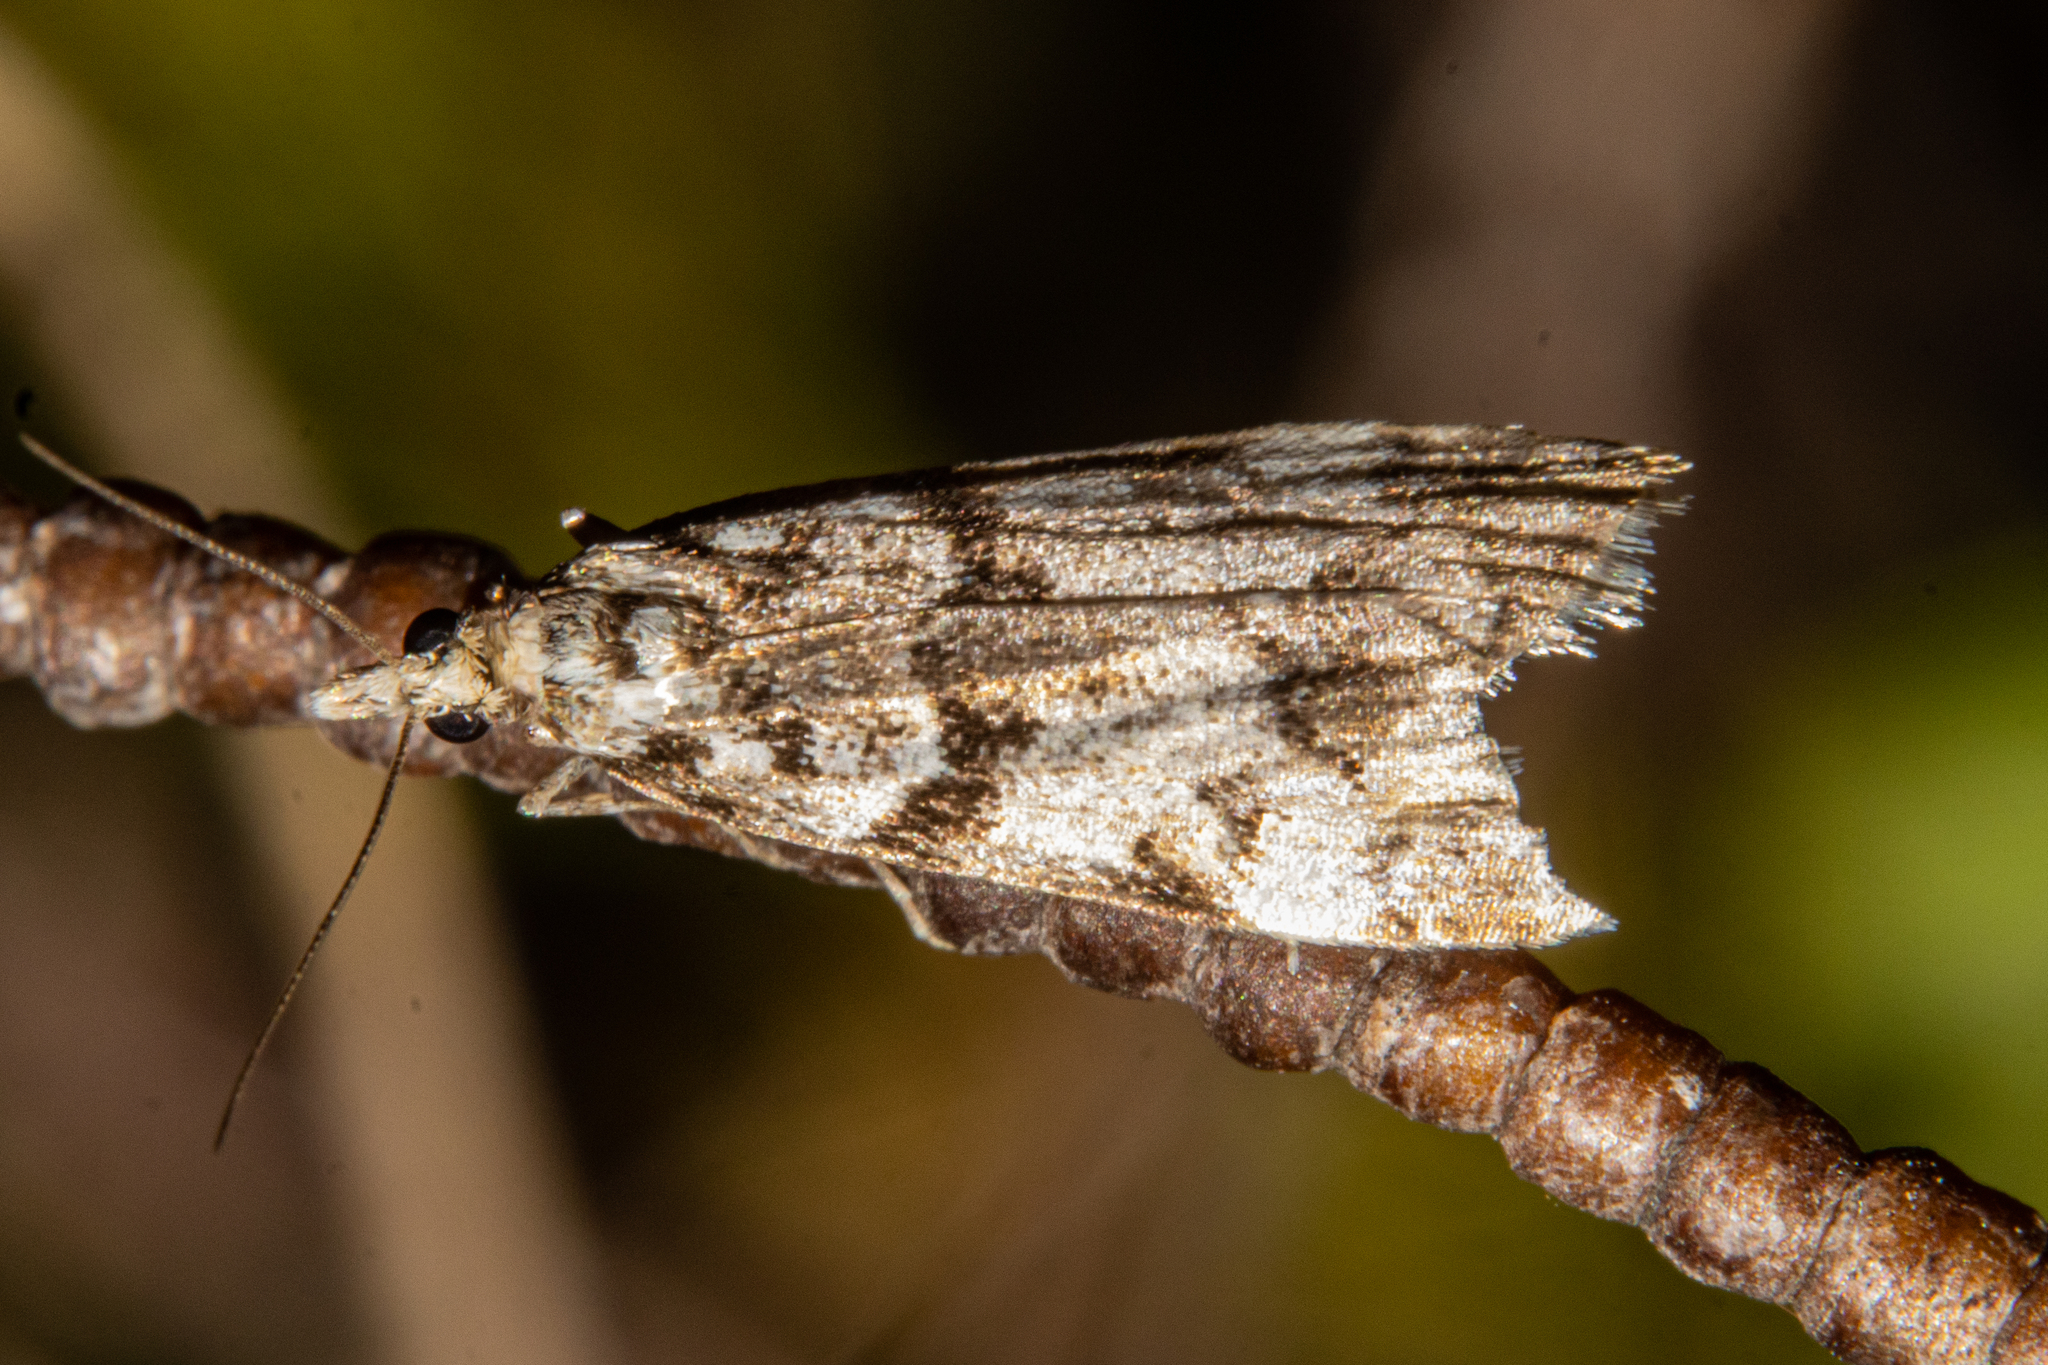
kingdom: Animalia
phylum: Arthropoda
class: Insecta
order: Lepidoptera
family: Crambidae
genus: Eudonia
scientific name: Eudonia torodes
